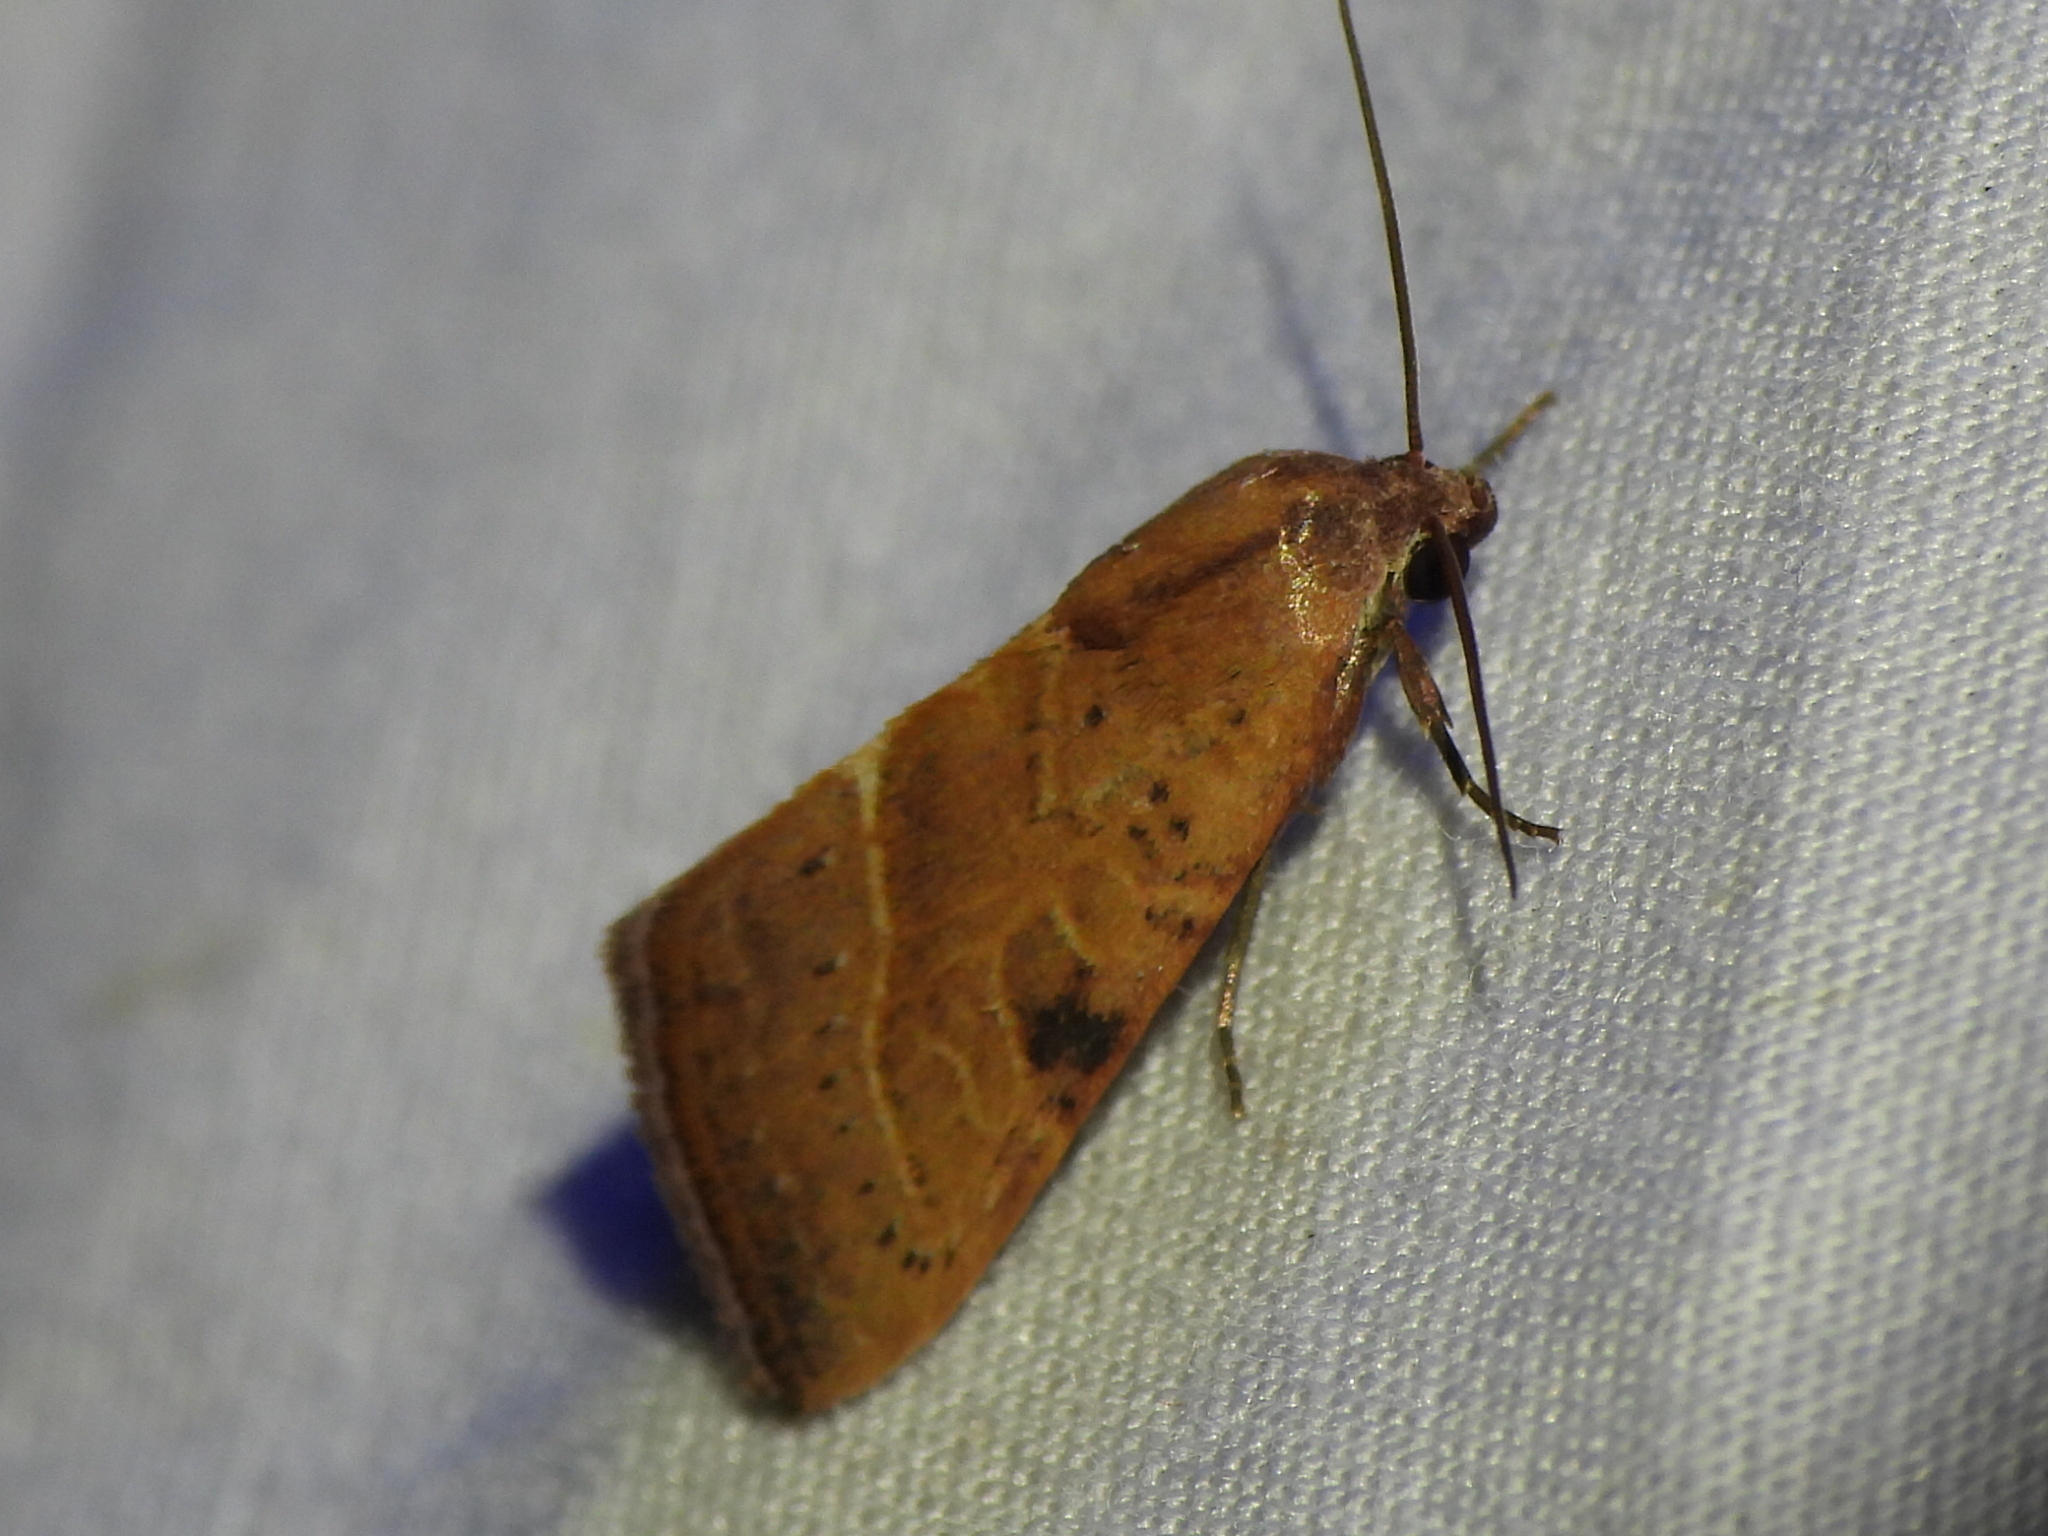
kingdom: Animalia
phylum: Arthropoda
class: Insecta
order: Lepidoptera
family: Noctuidae
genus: Galgula
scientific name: Galgula partita
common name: Wedgeling
